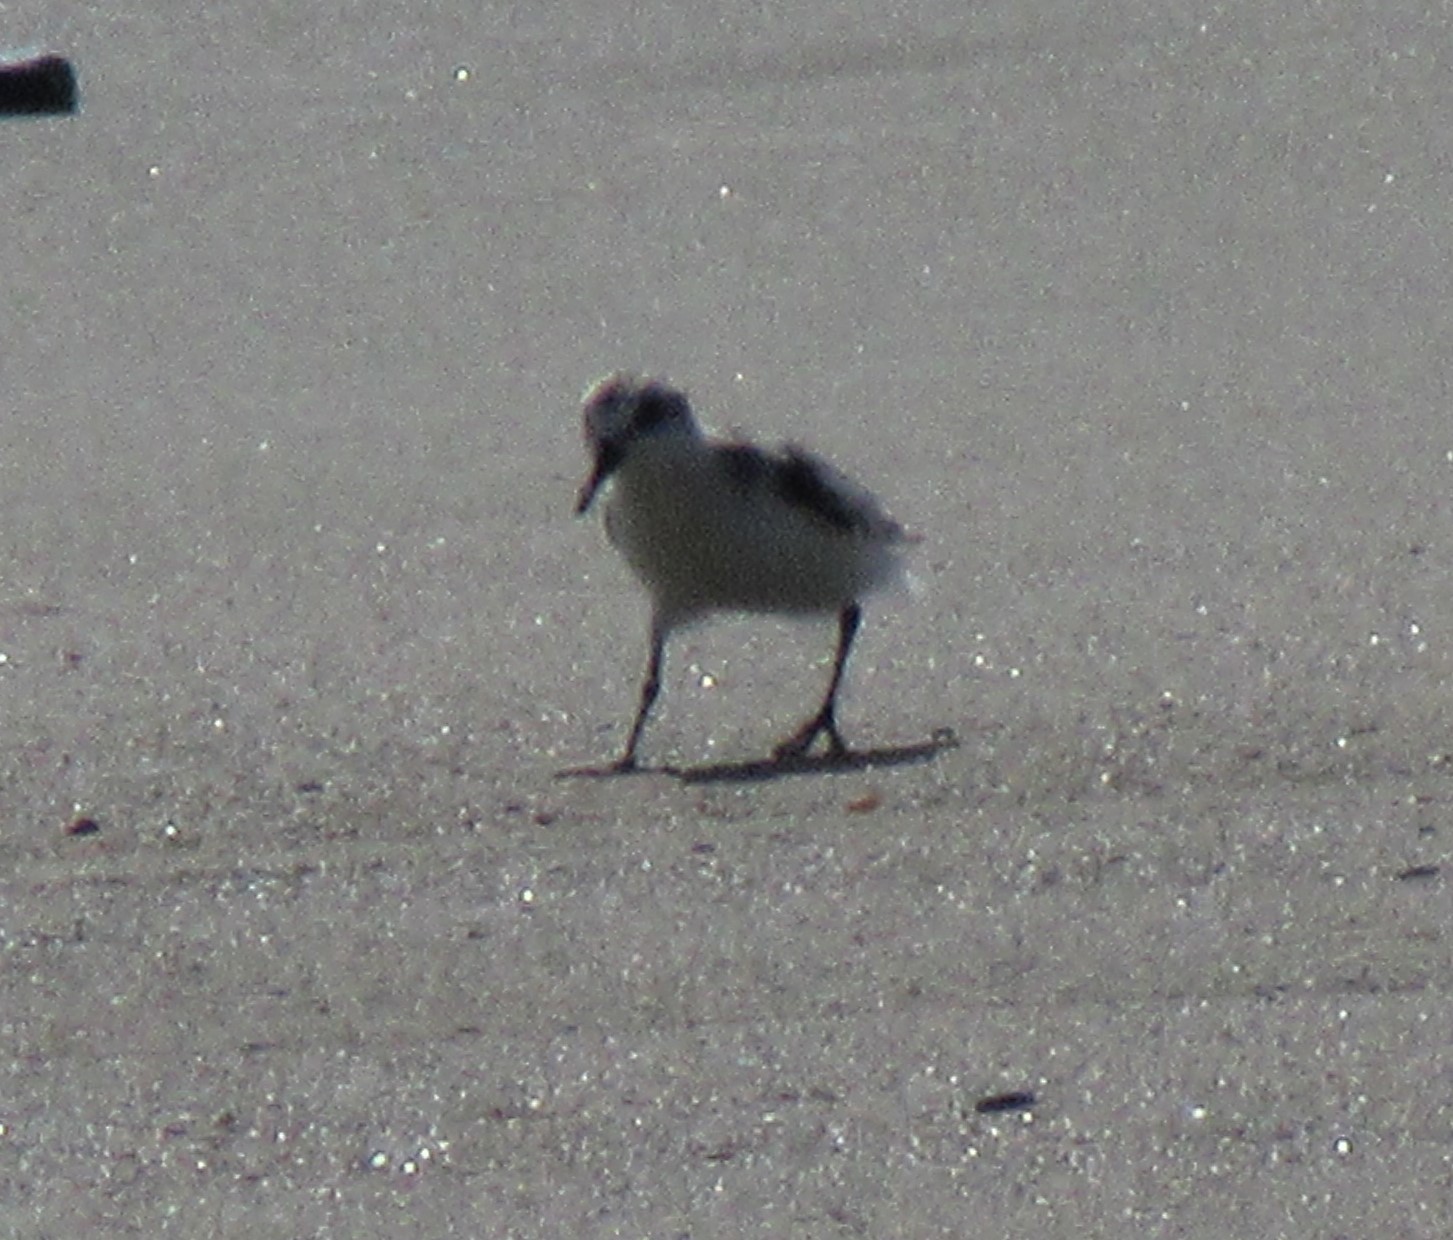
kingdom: Animalia
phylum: Chordata
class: Aves
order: Charadriiformes
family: Scolopacidae
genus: Calidris
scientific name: Calidris alba
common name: Sanderling
